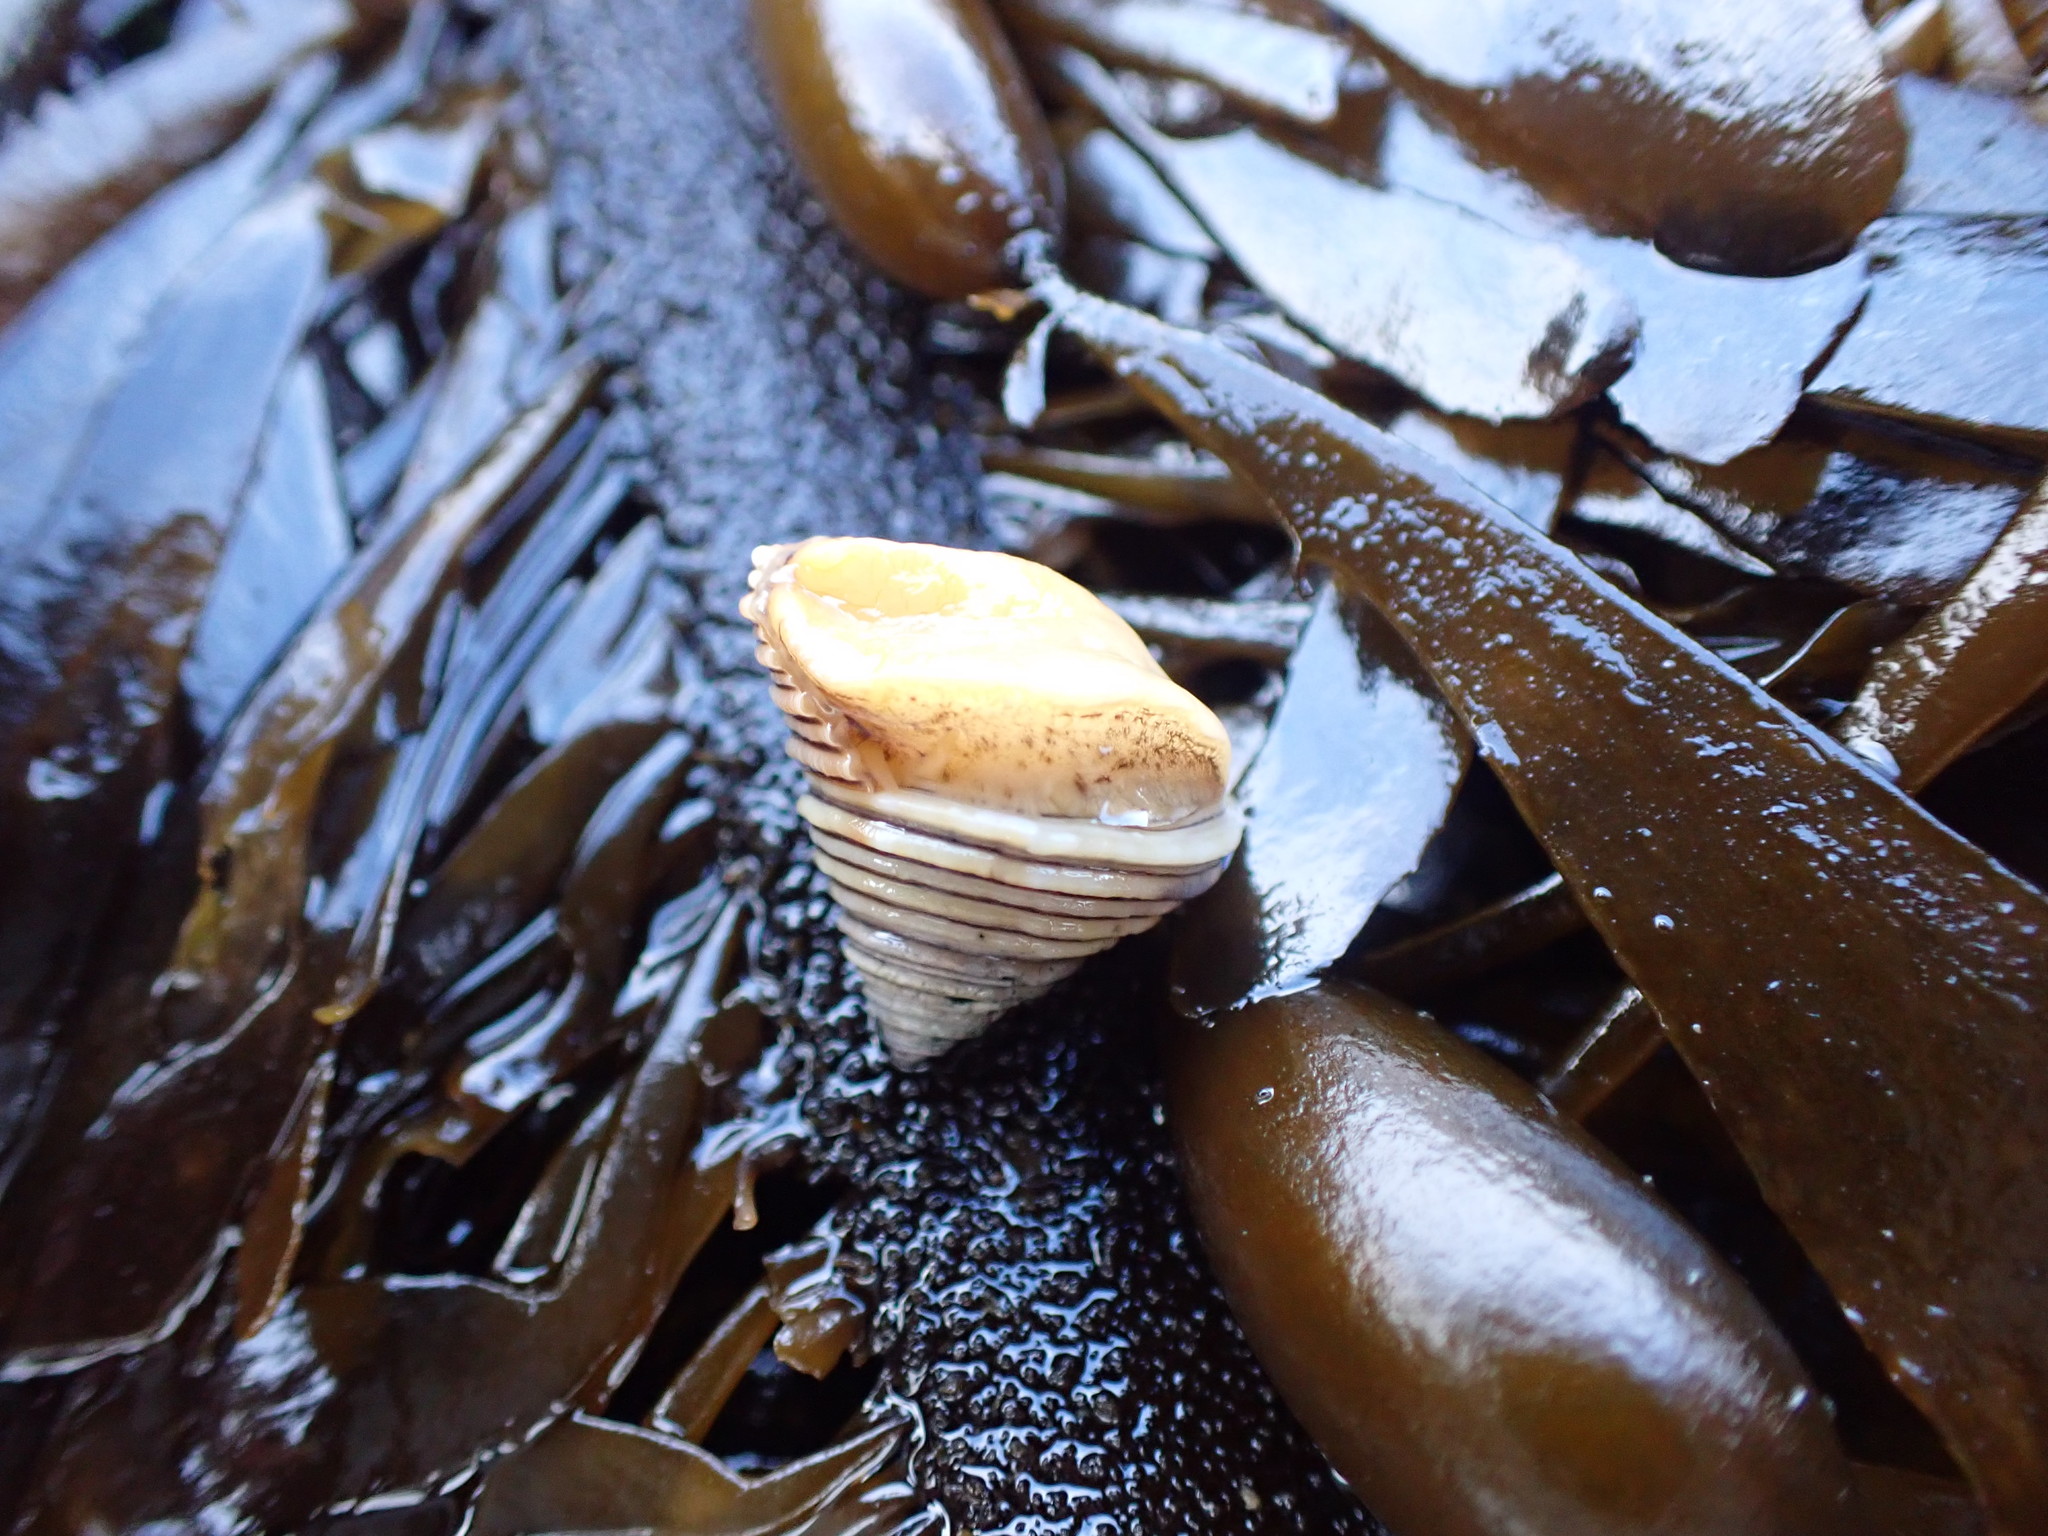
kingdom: Animalia
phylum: Mollusca
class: Gastropoda
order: Trochida
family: Calliostomatidae
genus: Calliostoma
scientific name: Calliostoma canaliculatum
